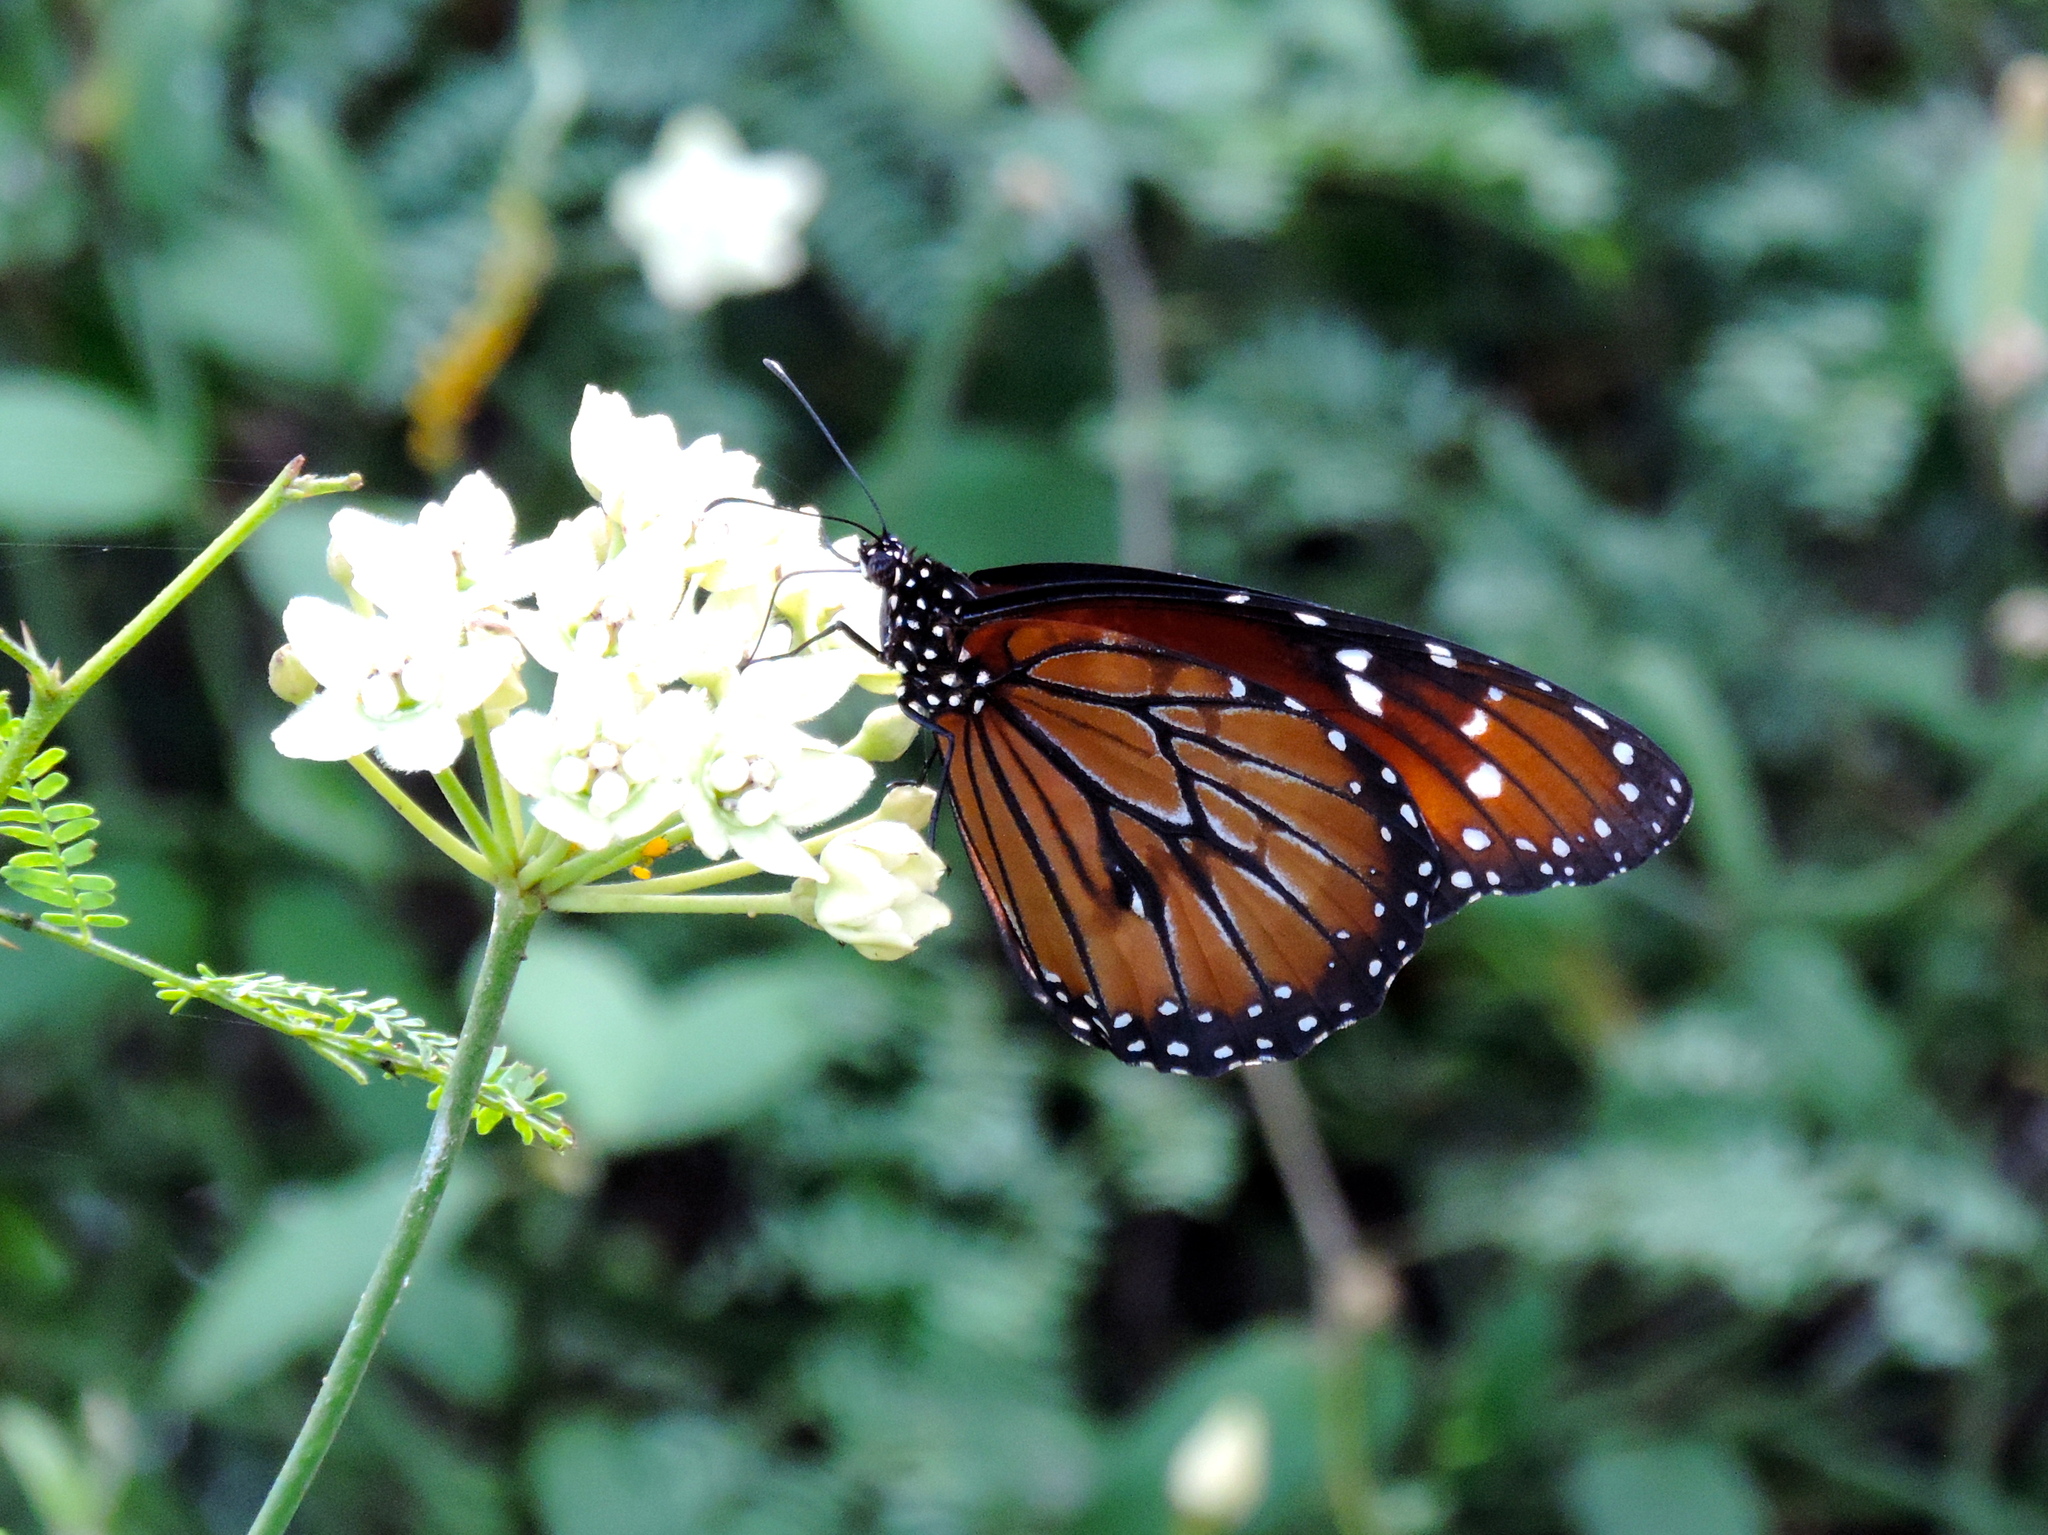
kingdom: Animalia
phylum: Arthropoda
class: Insecta
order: Lepidoptera
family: Nymphalidae
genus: Danaus
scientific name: Danaus eresimus
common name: Soldier
